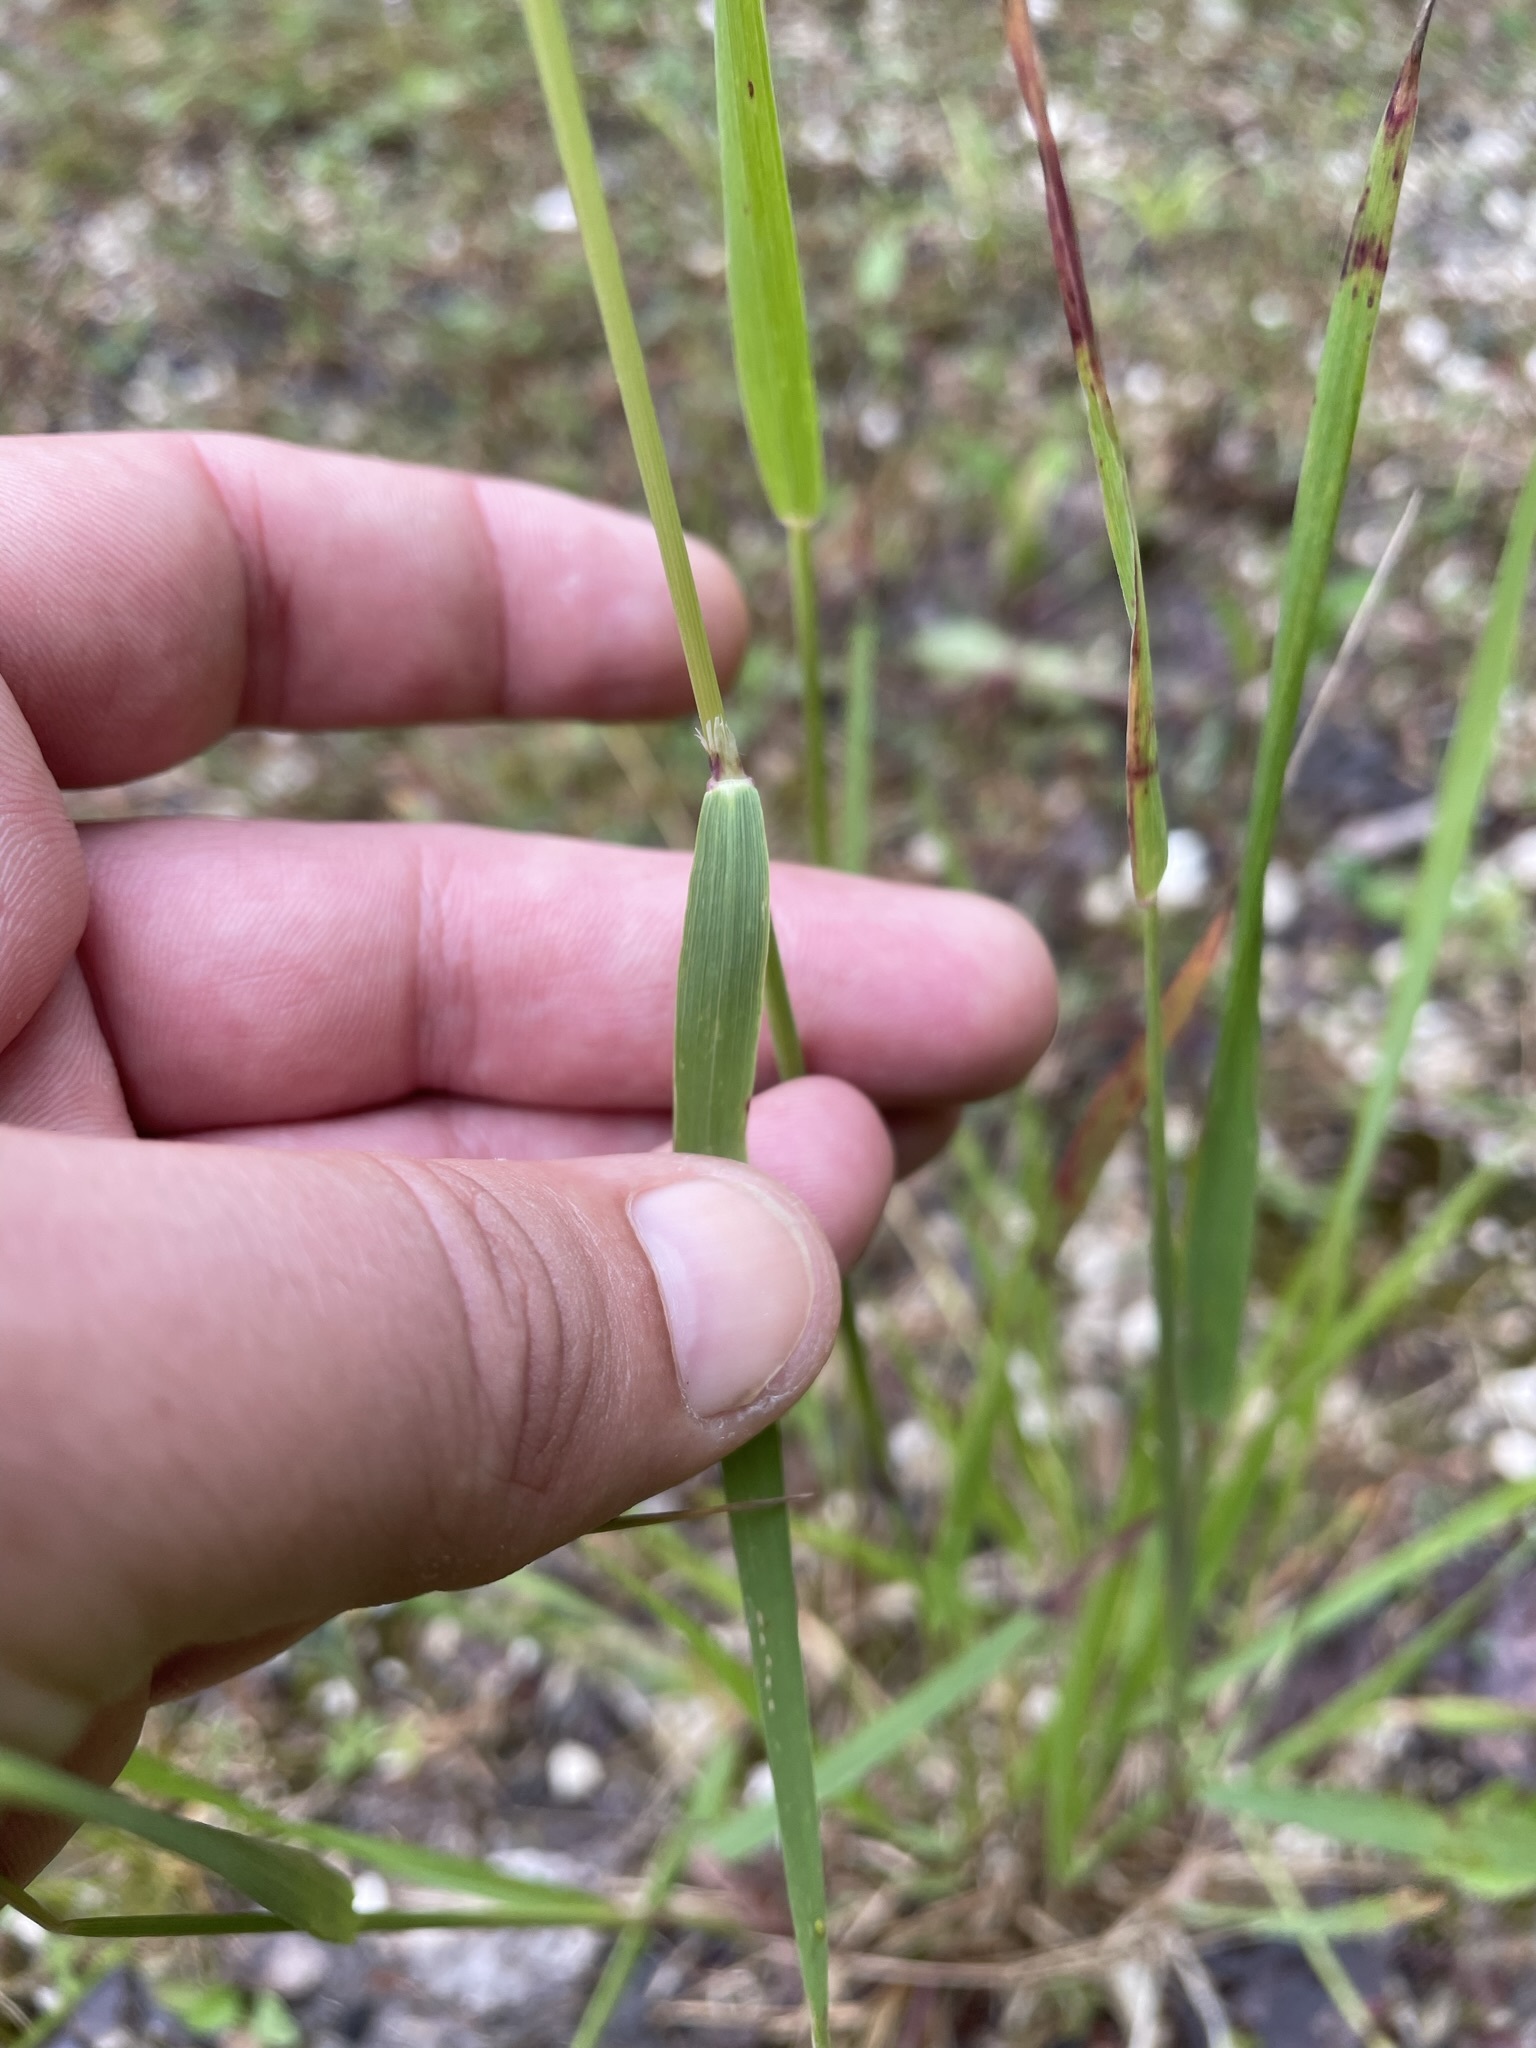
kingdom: Plantae
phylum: Tracheophyta
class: Liliopsida
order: Poales
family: Poaceae
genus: Calamagrostis
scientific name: Calamagrostis varia
